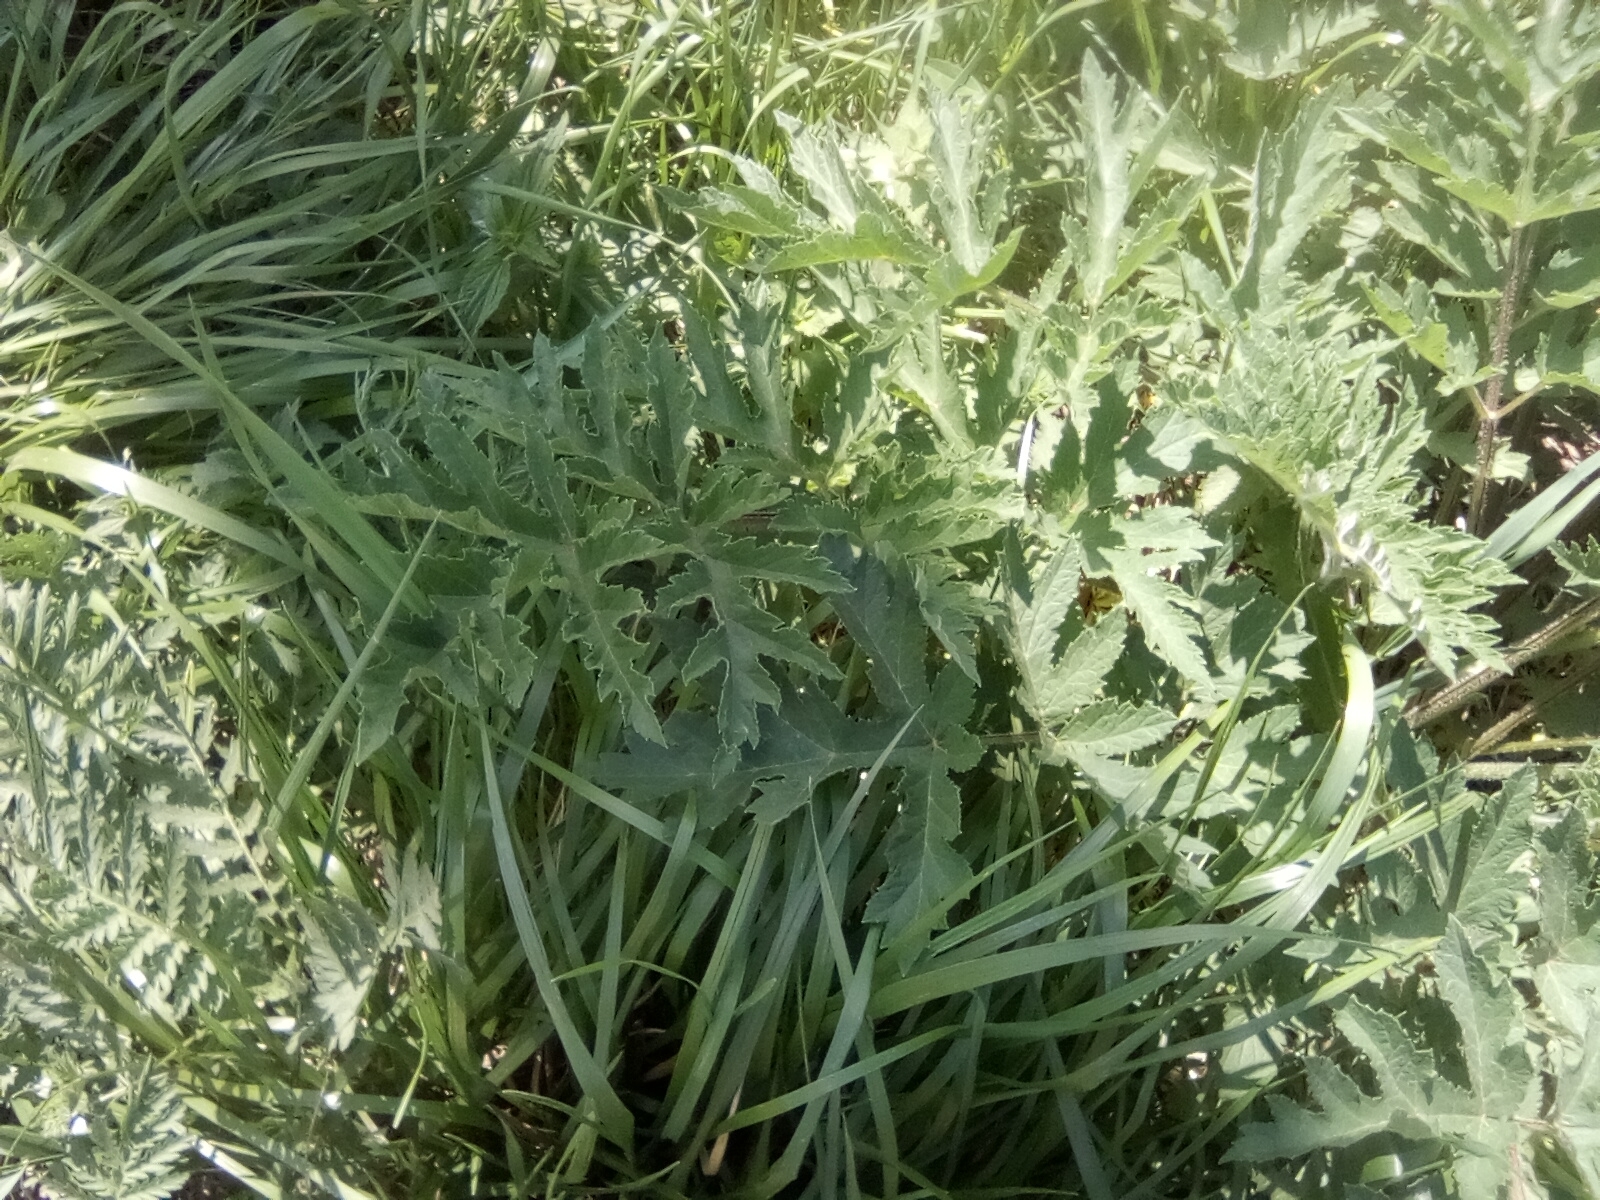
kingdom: Plantae
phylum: Tracheophyta
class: Magnoliopsida
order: Apiales
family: Apiaceae
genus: Heracleum
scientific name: Heracleum sphondylium
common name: Hogweed
